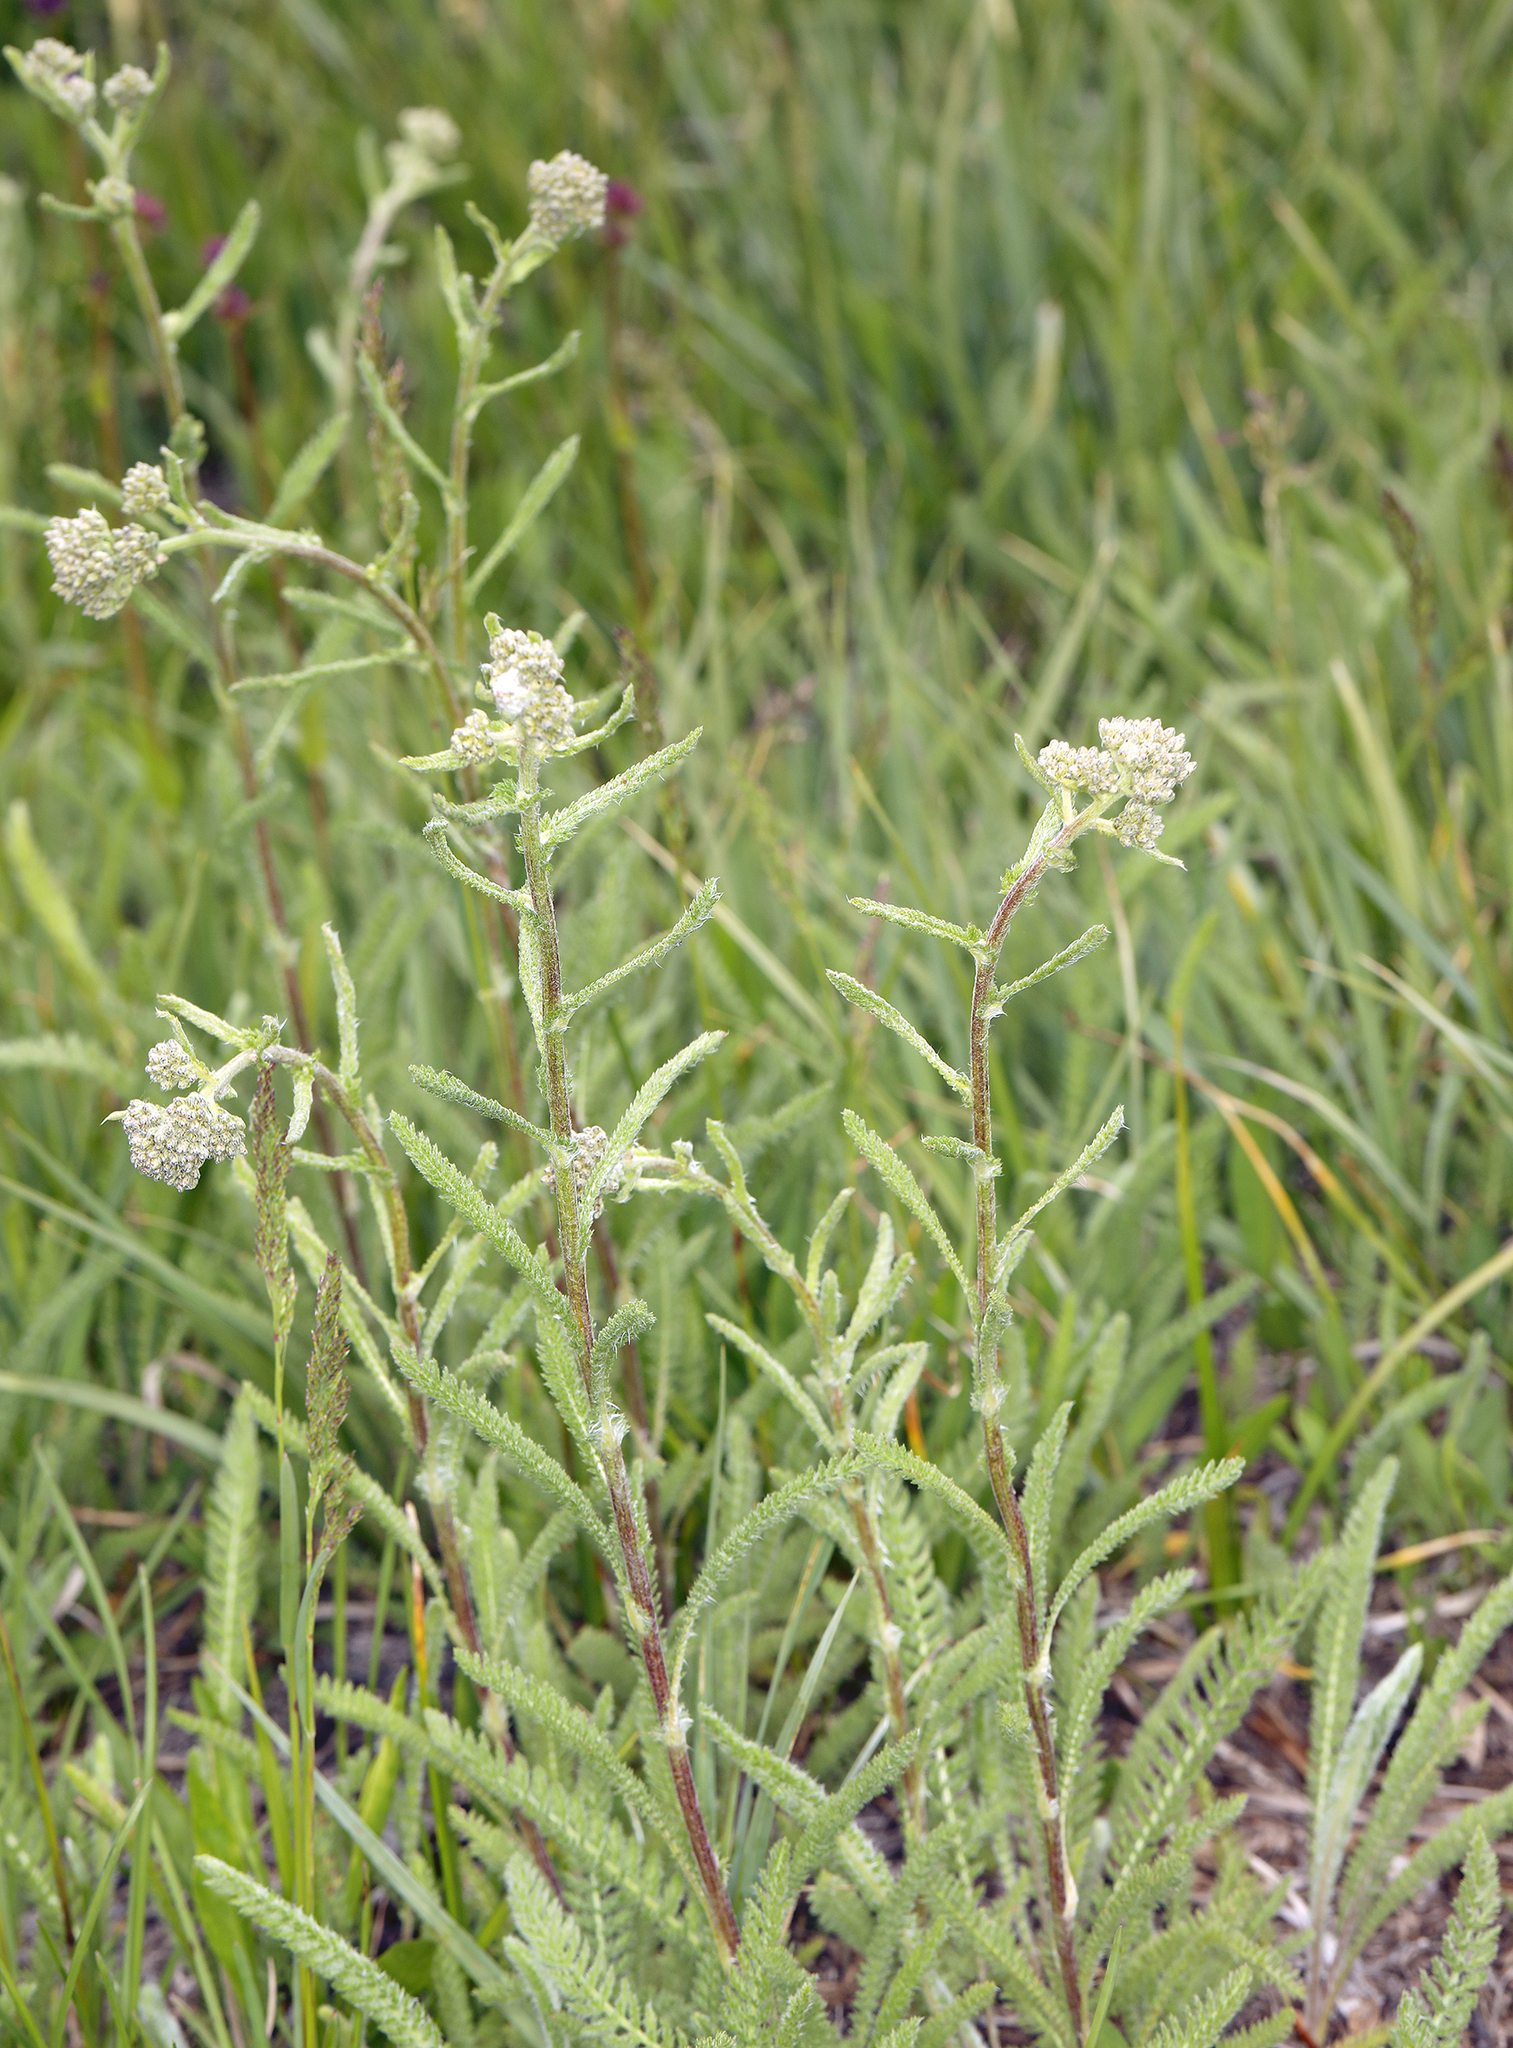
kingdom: Plantae
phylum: Tracheophyta
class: Magnoliopsida
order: Asterales
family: Asteraceae
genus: Achillea
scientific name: Achillea millefolium
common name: Yarrow
